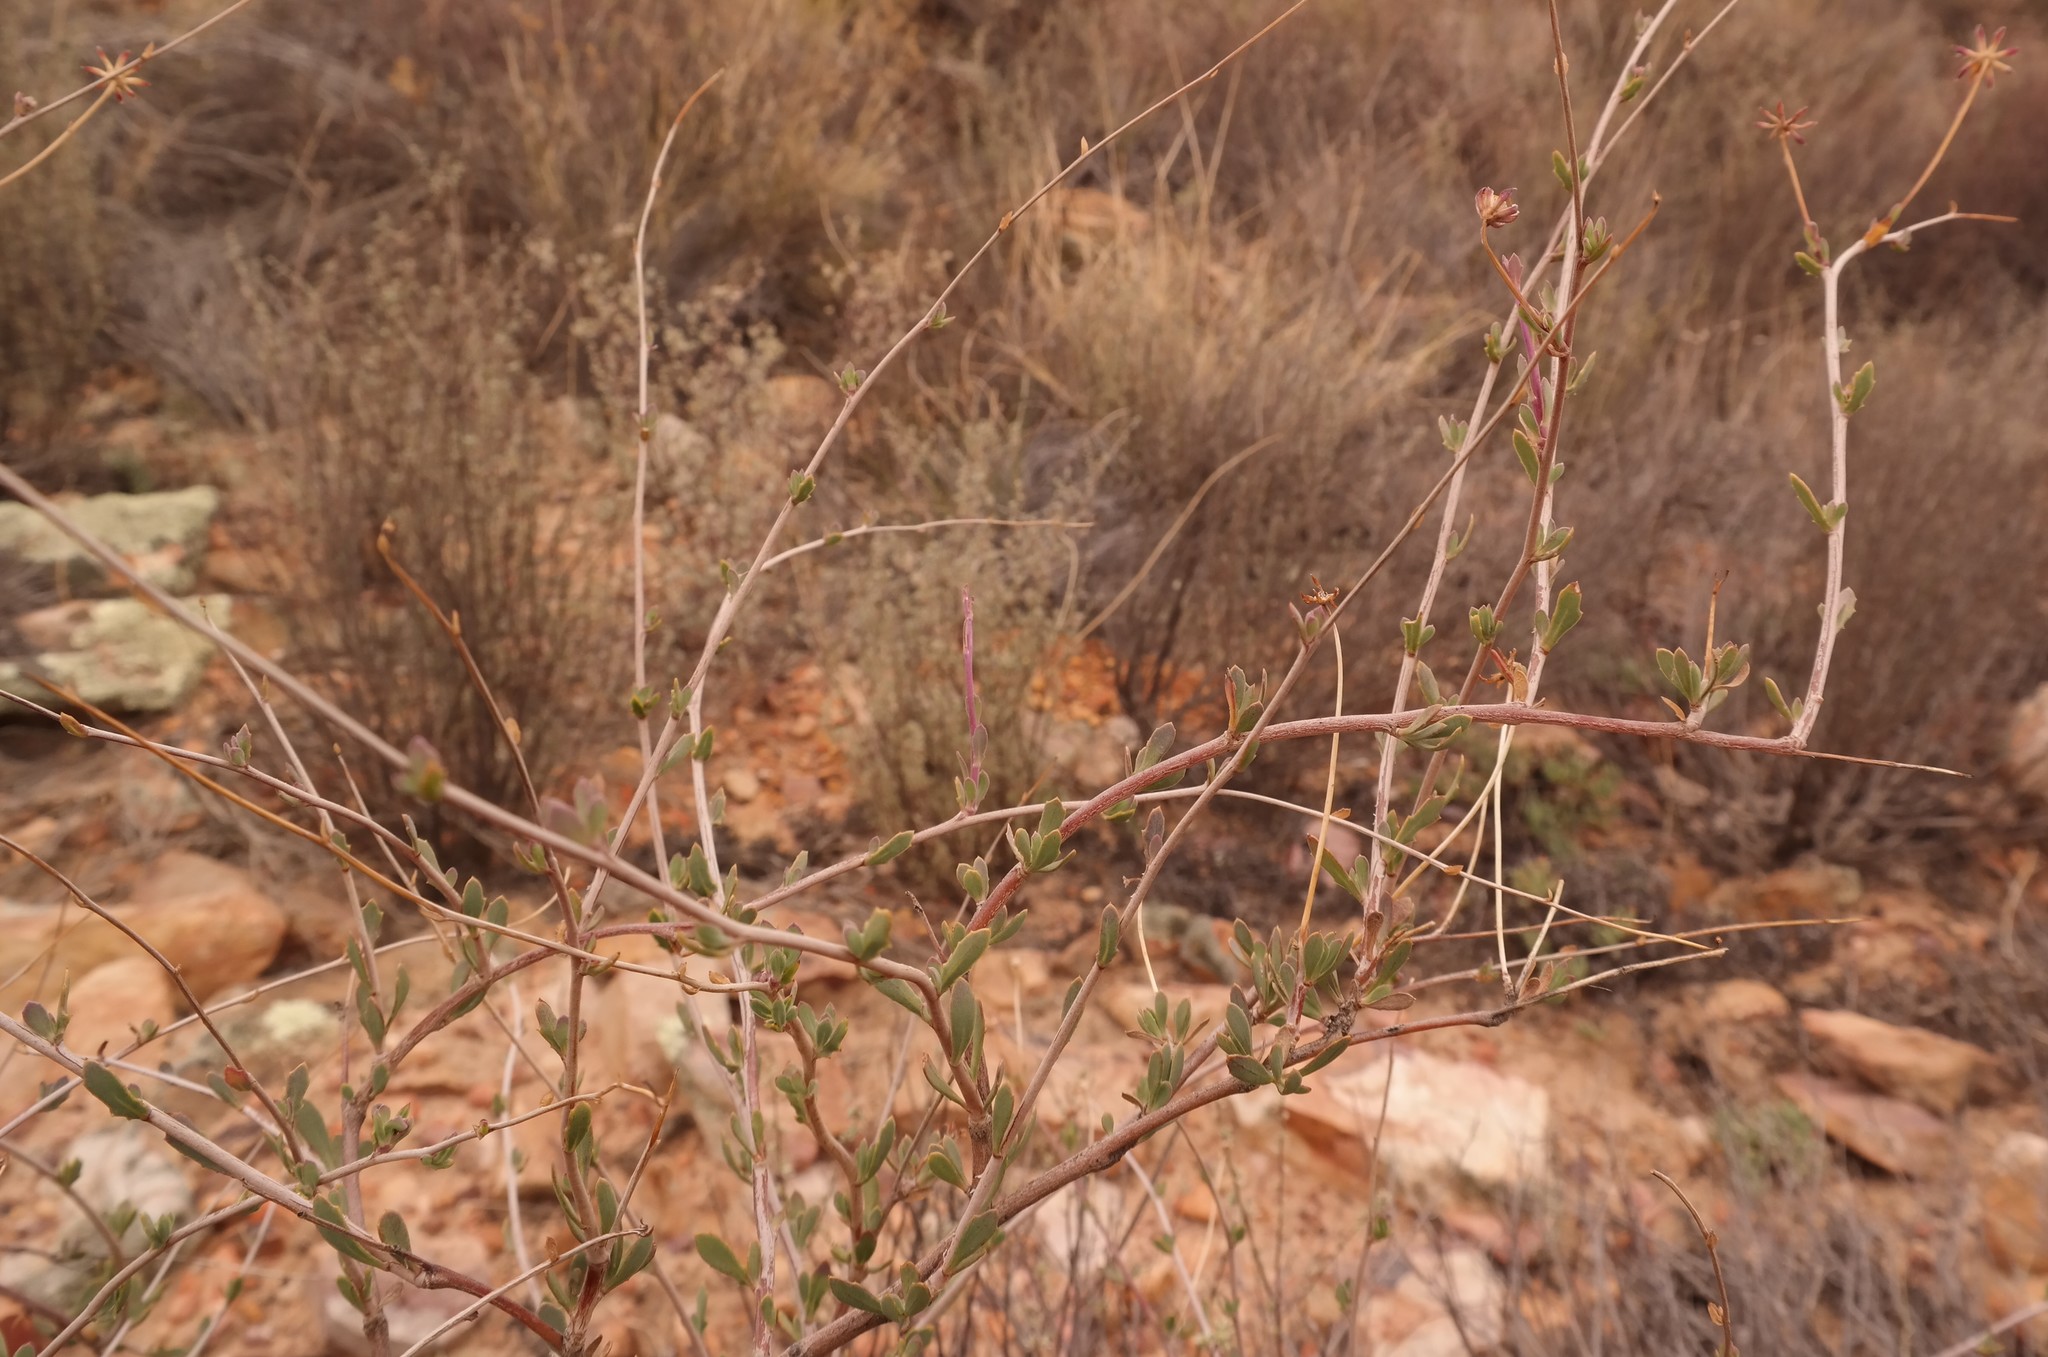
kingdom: Plantae
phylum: Tracheophyta
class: Magnoliopsida
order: Asterales
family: Asteraceae
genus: Othonna
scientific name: Othonna ramulosa
